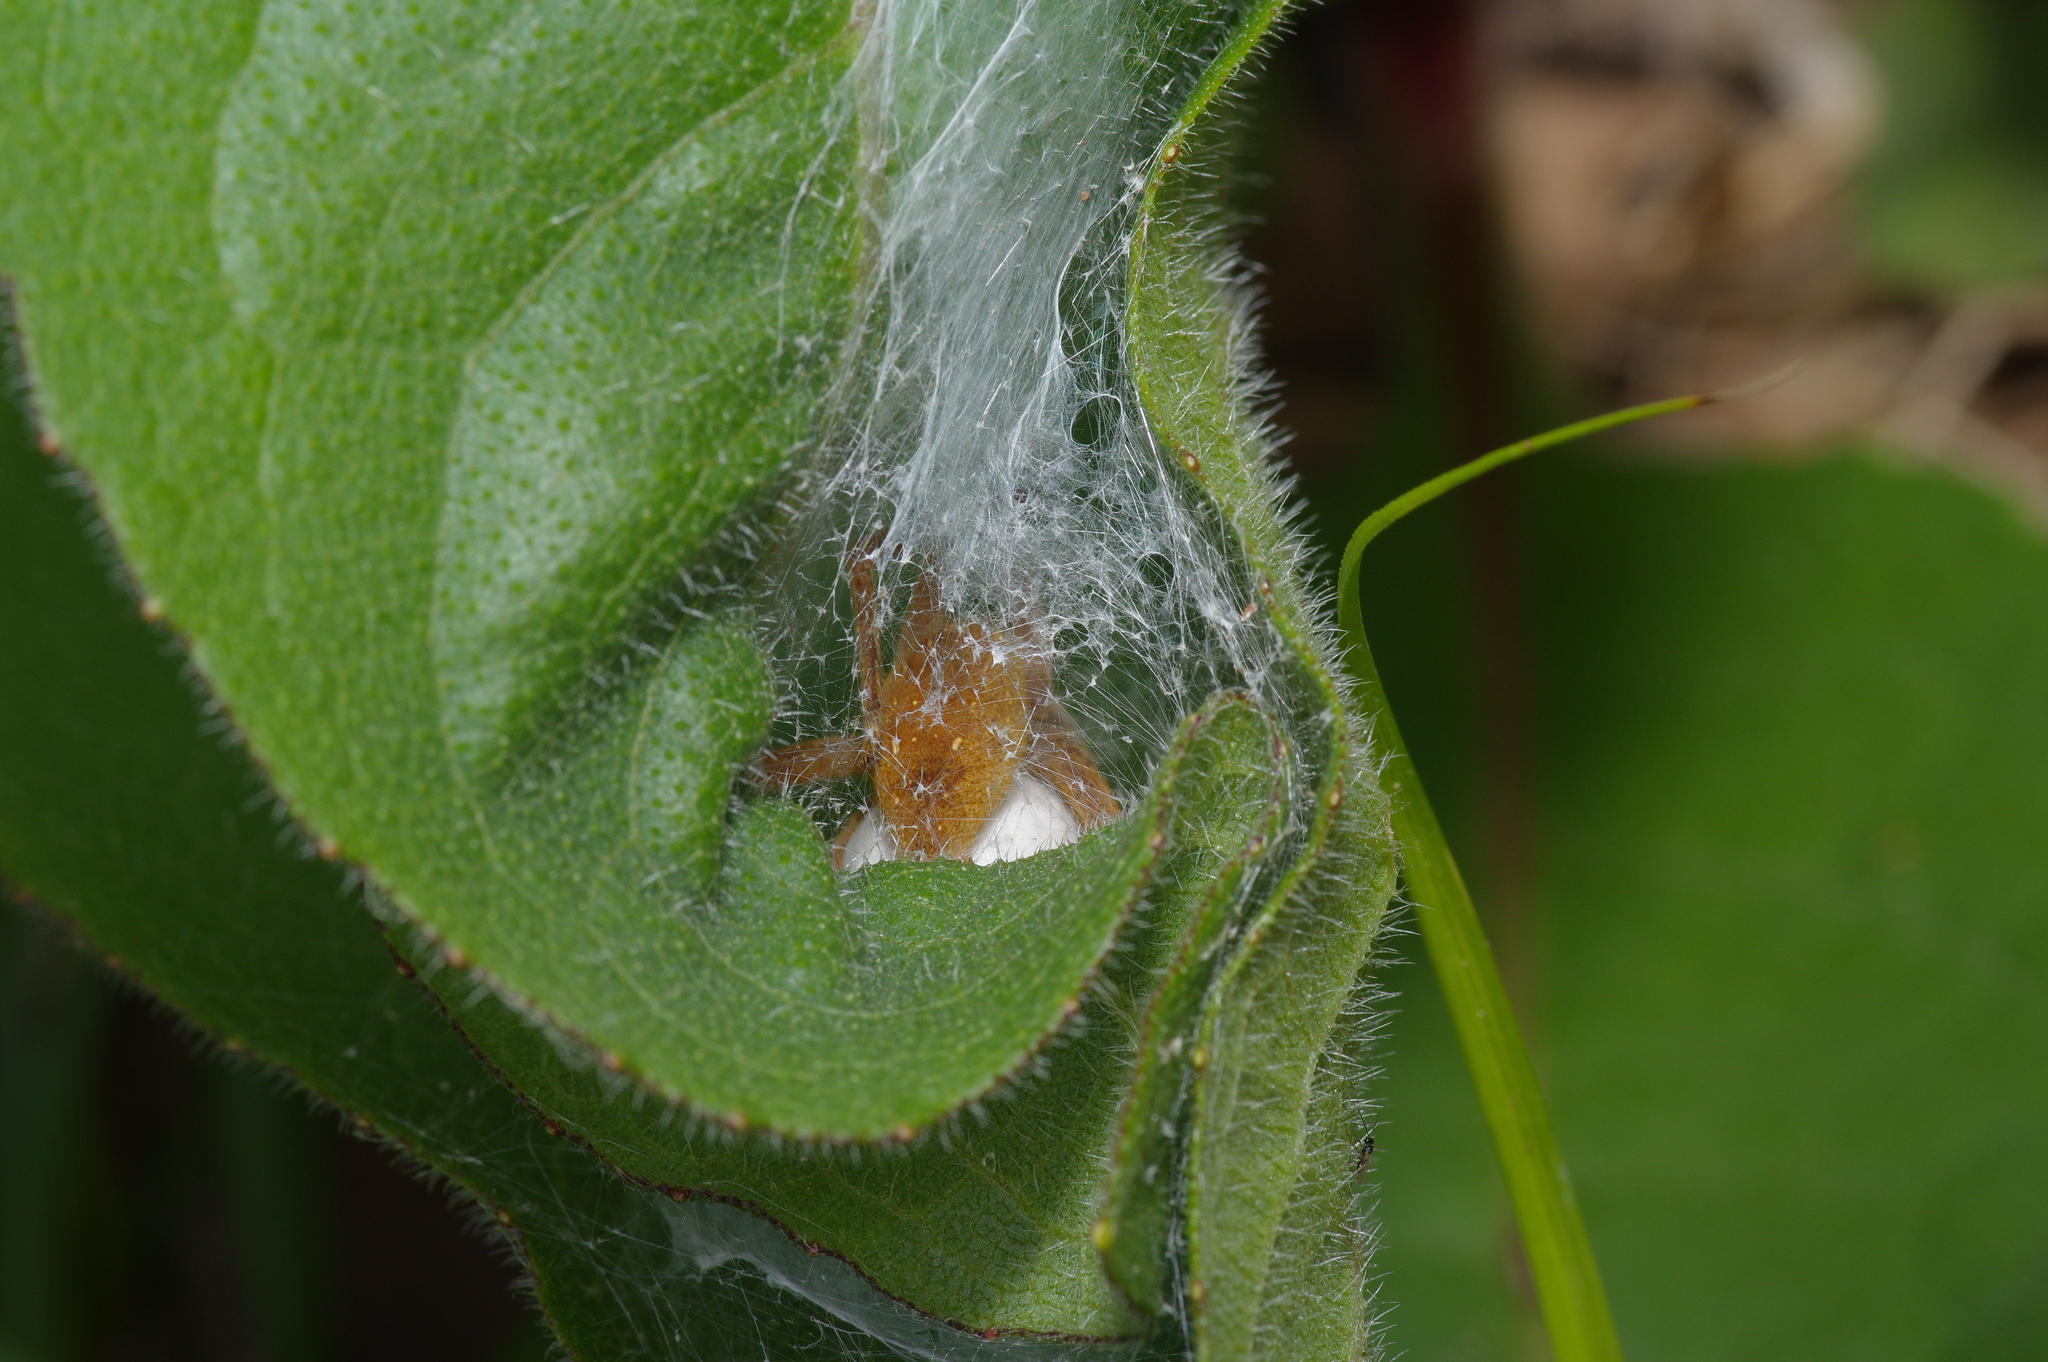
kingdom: Animalia
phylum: Arthropoda
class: Arachnida
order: Araneae
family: Pisauridae
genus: Pisaurina
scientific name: Pisaurina mira
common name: American nursery web spider
